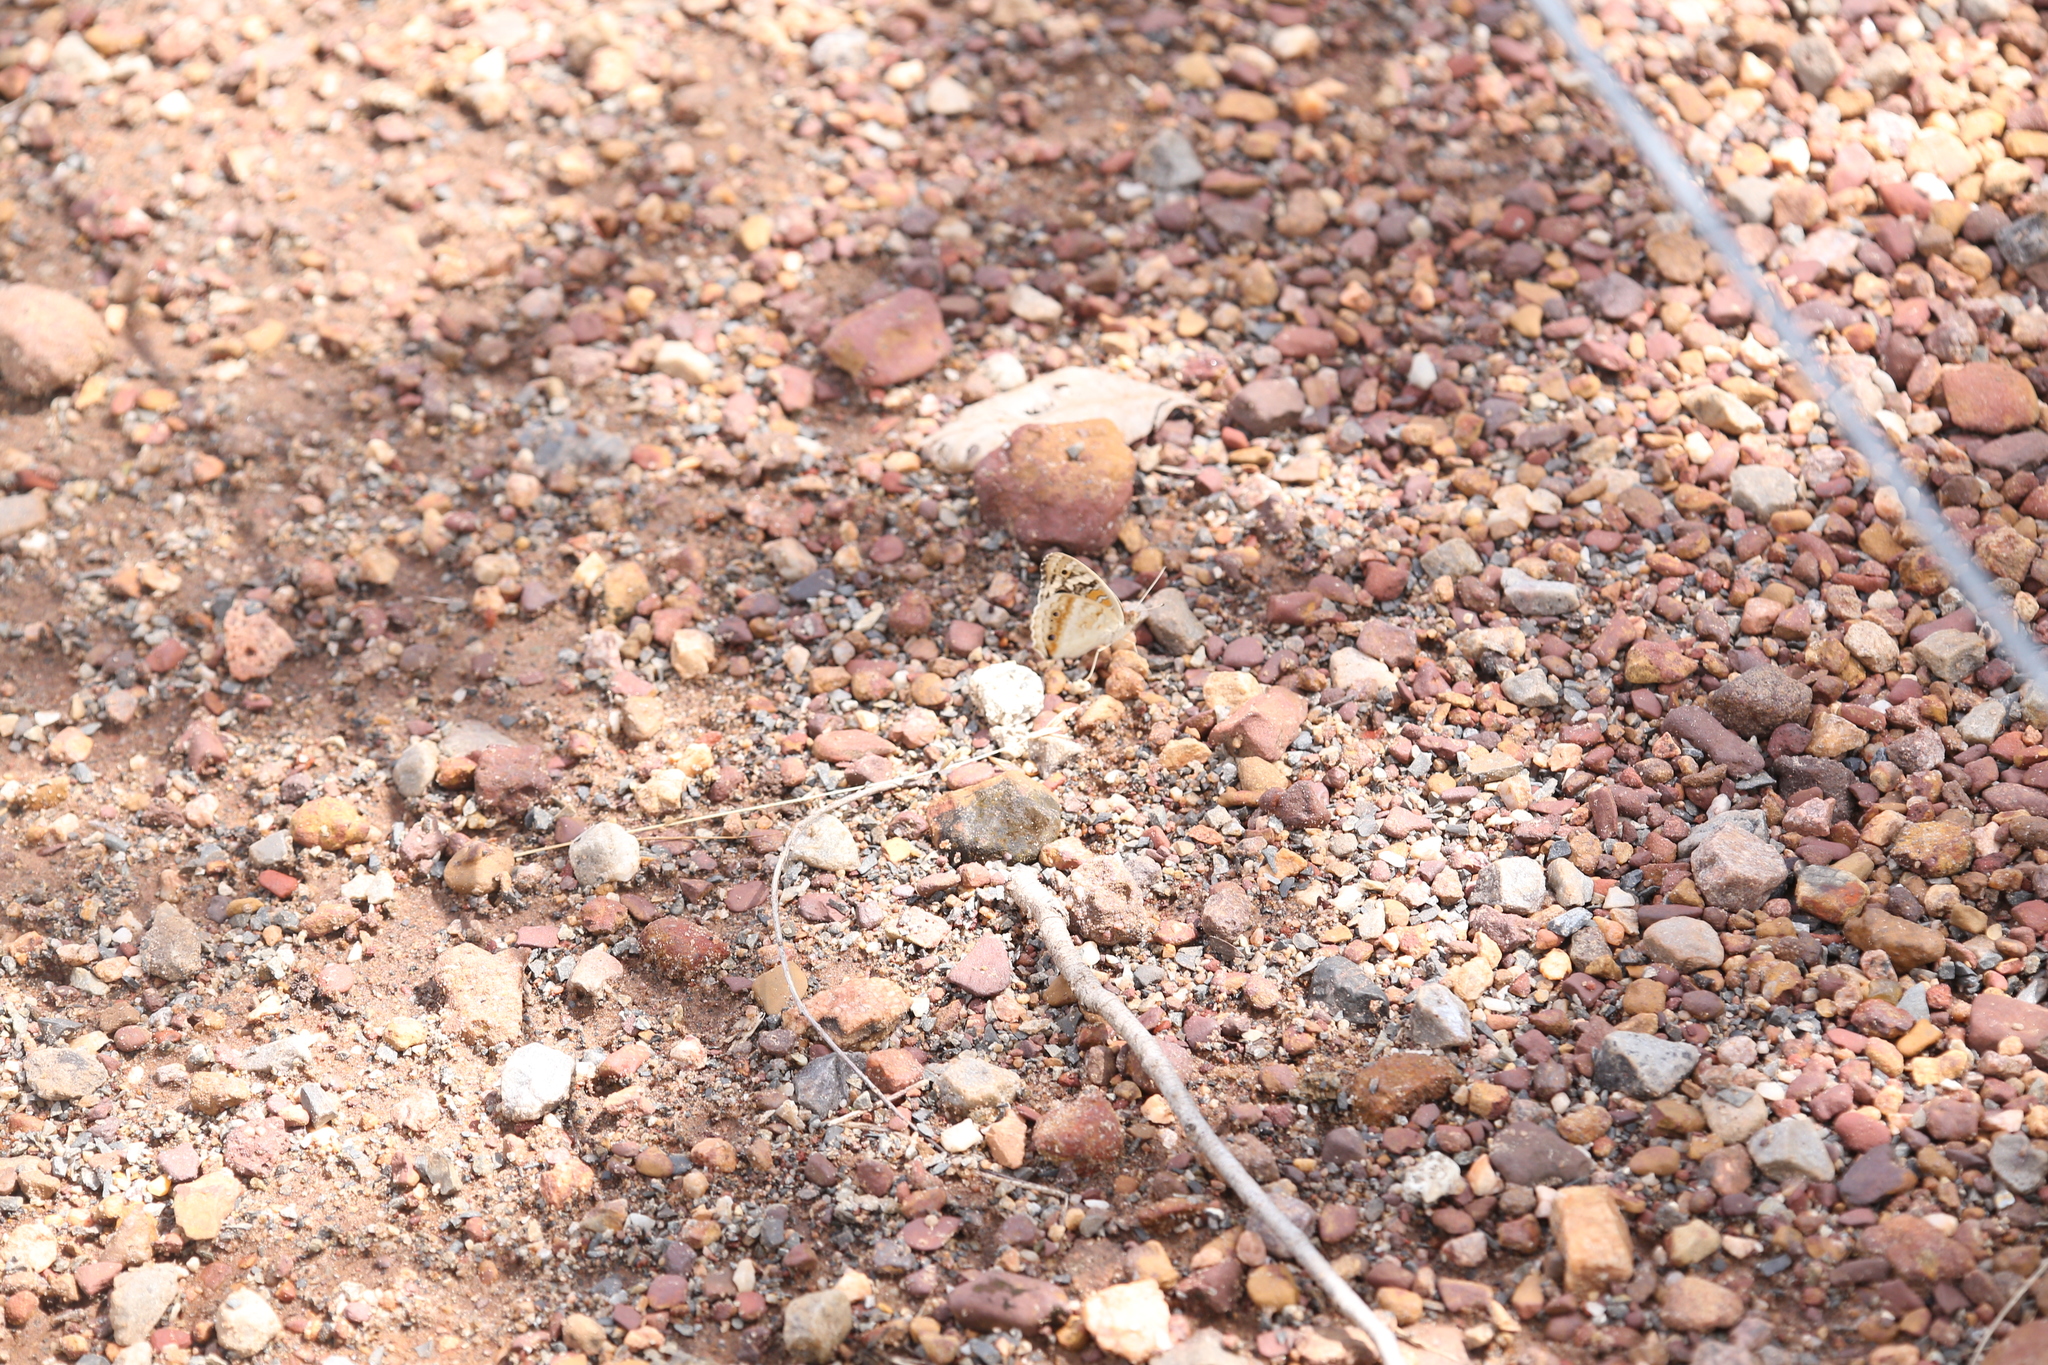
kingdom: Animalia
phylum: Arthropoda
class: Insecta
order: Lepidoptera
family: Nymphalidae
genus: Junonia
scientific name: Junonia orithya
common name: Blue pansy
